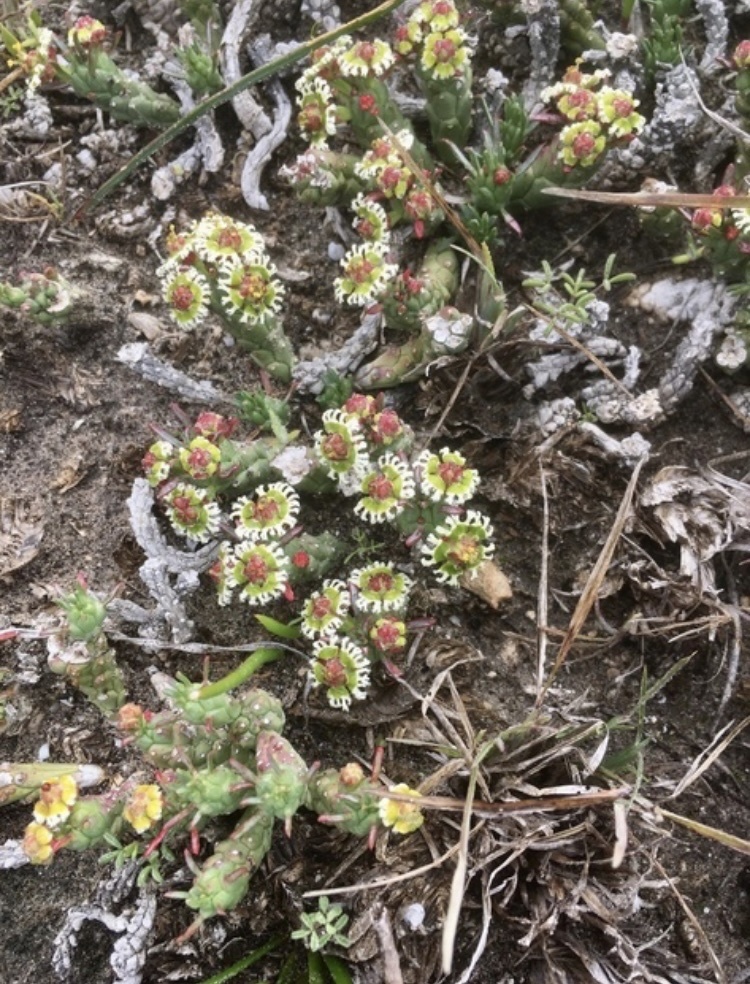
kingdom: Plantae
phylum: Tracheophyta
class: Magnoliopsida
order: Malpighiales
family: Euphorbiaceae
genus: Euphorbia
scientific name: Euphorbia caput-medusae
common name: Medusa's-head
